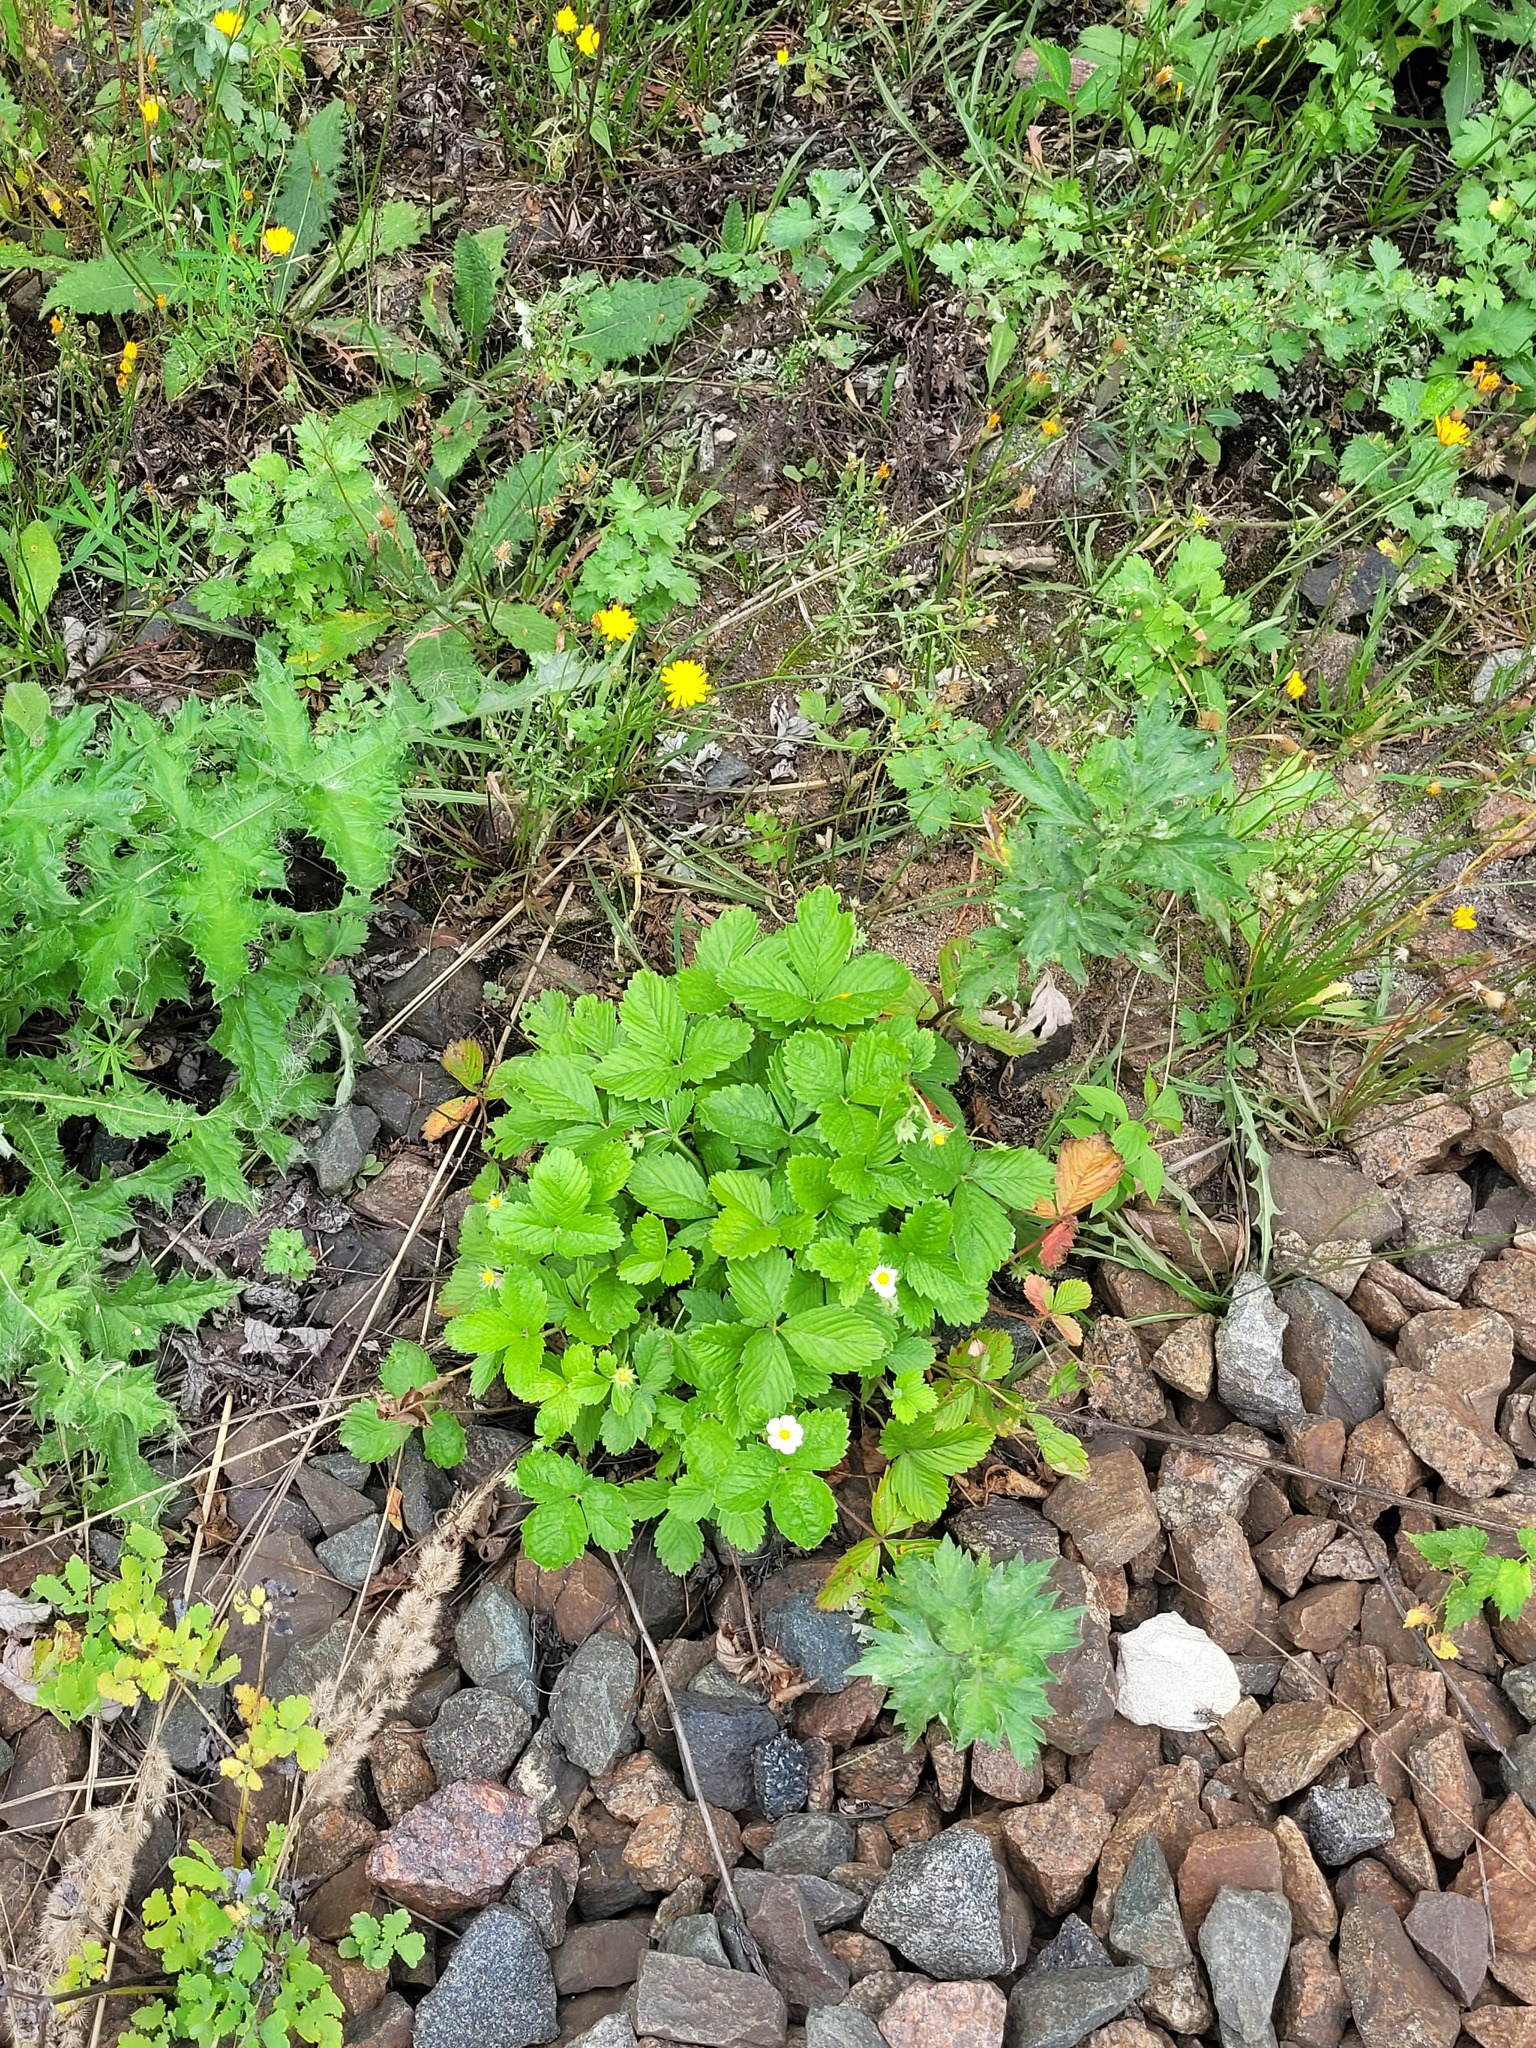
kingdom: Plantae
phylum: Tracheophyta
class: Magnoliopsida
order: Rosales
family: Rosaceae
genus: Fragaria
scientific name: Fragaria vesca
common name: Wild strawberry
